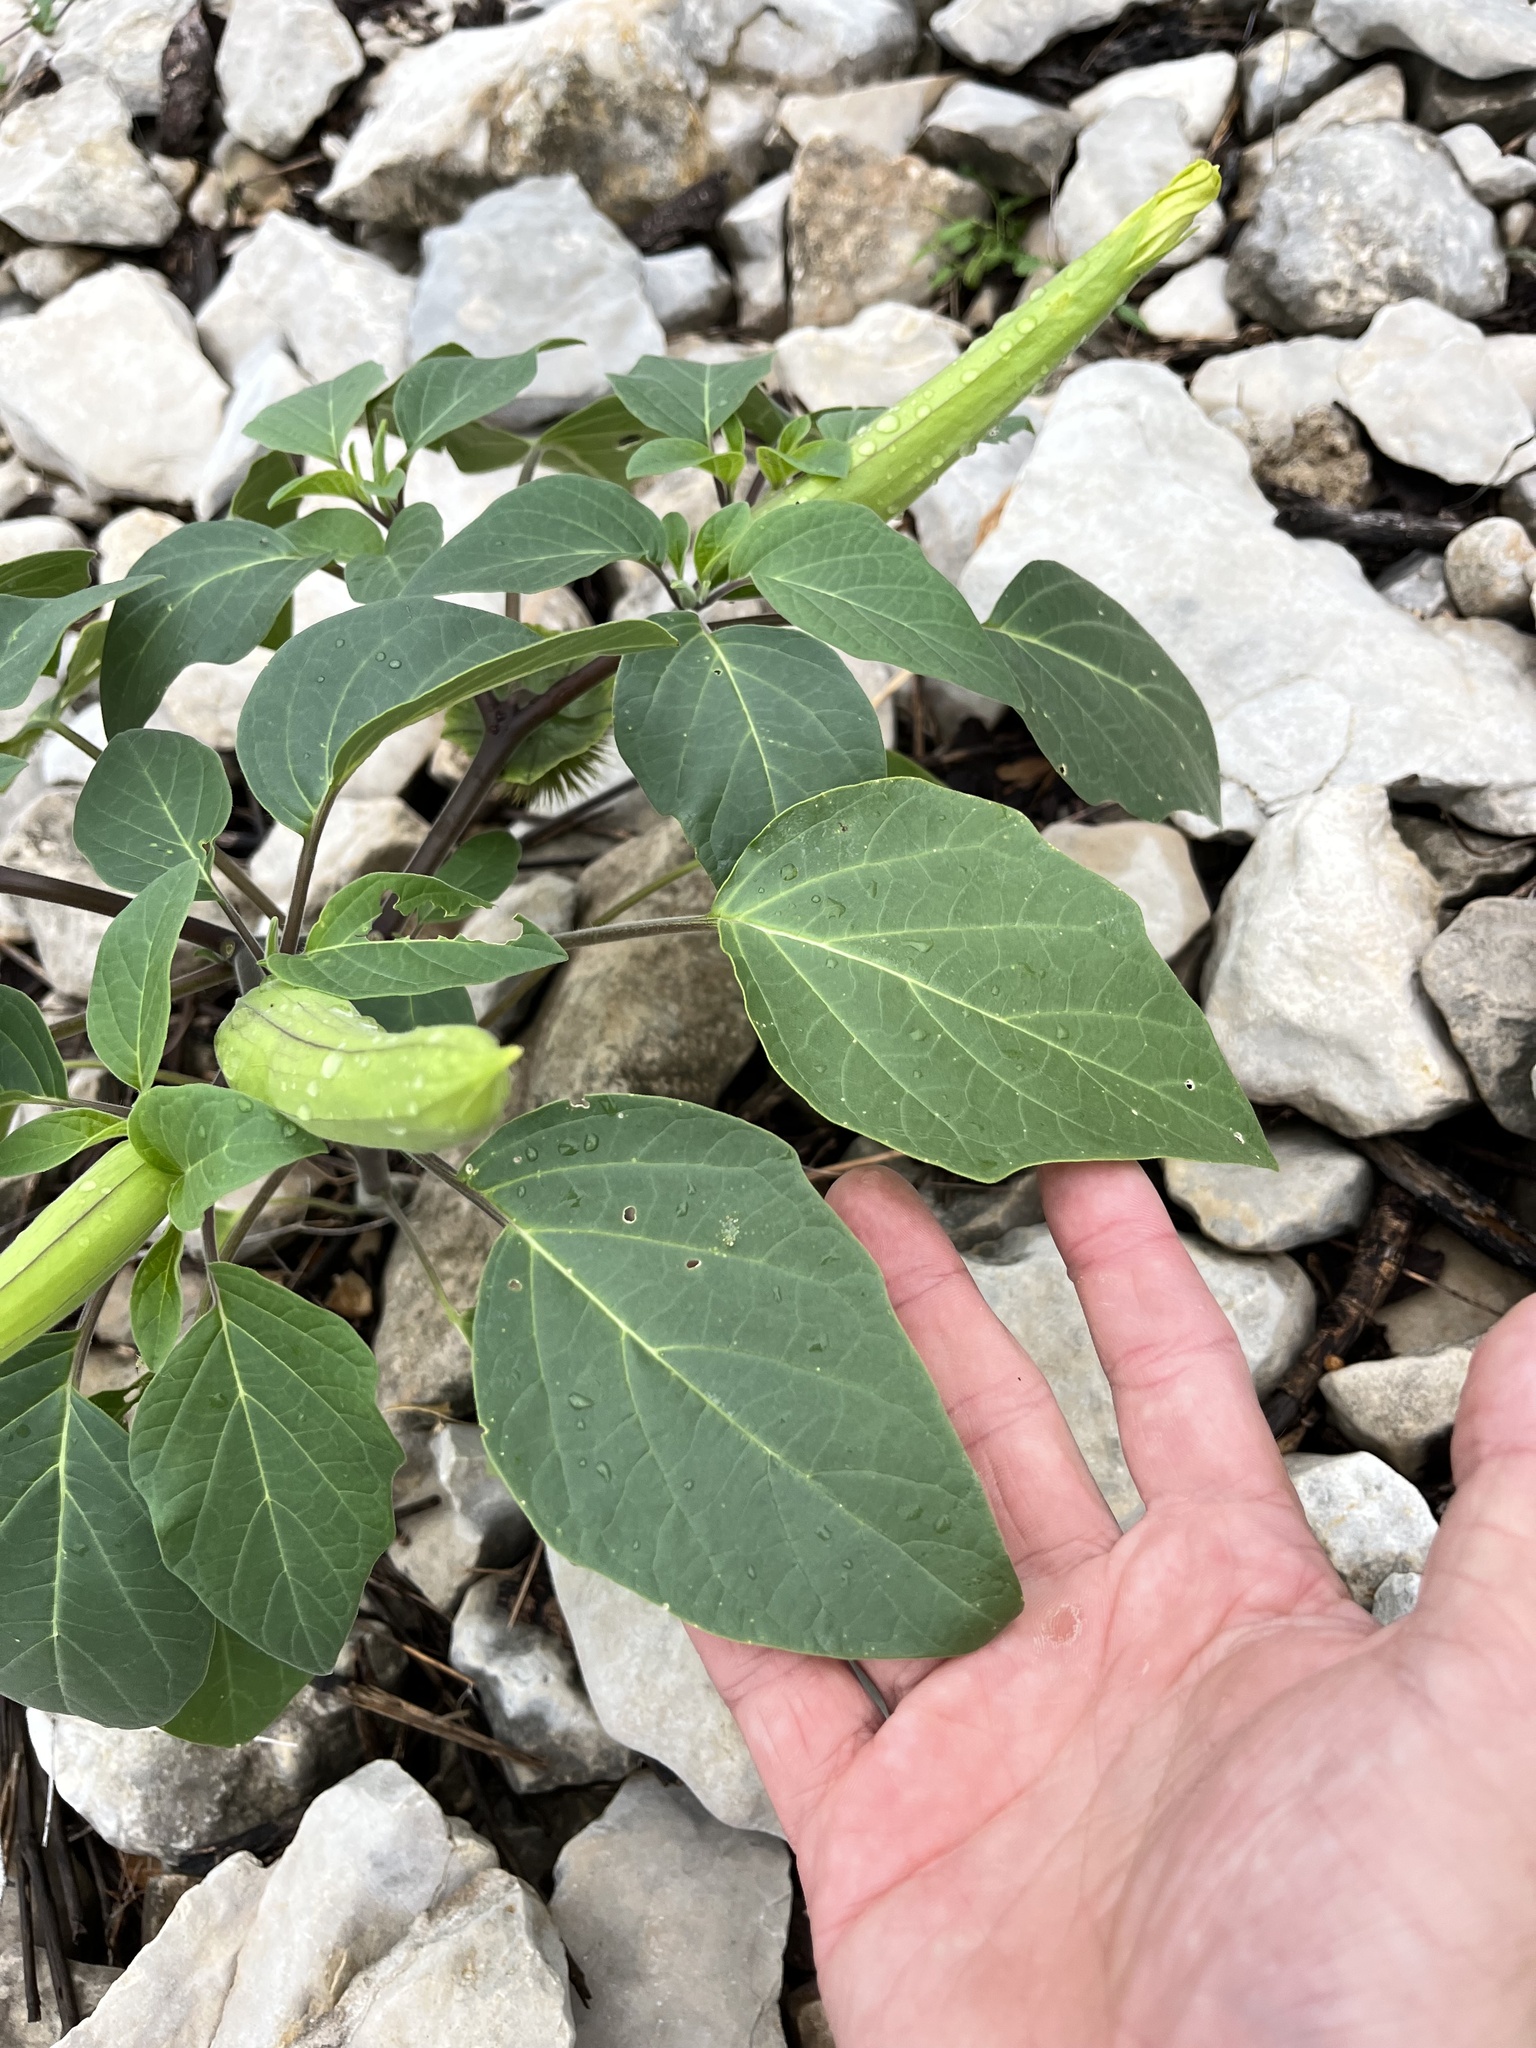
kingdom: Plantae
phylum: Tracheophyta
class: Magnoliopsida
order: Solanales
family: Solanaceae
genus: Datura
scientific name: Datura innoxia
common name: Downy thorn-apple
